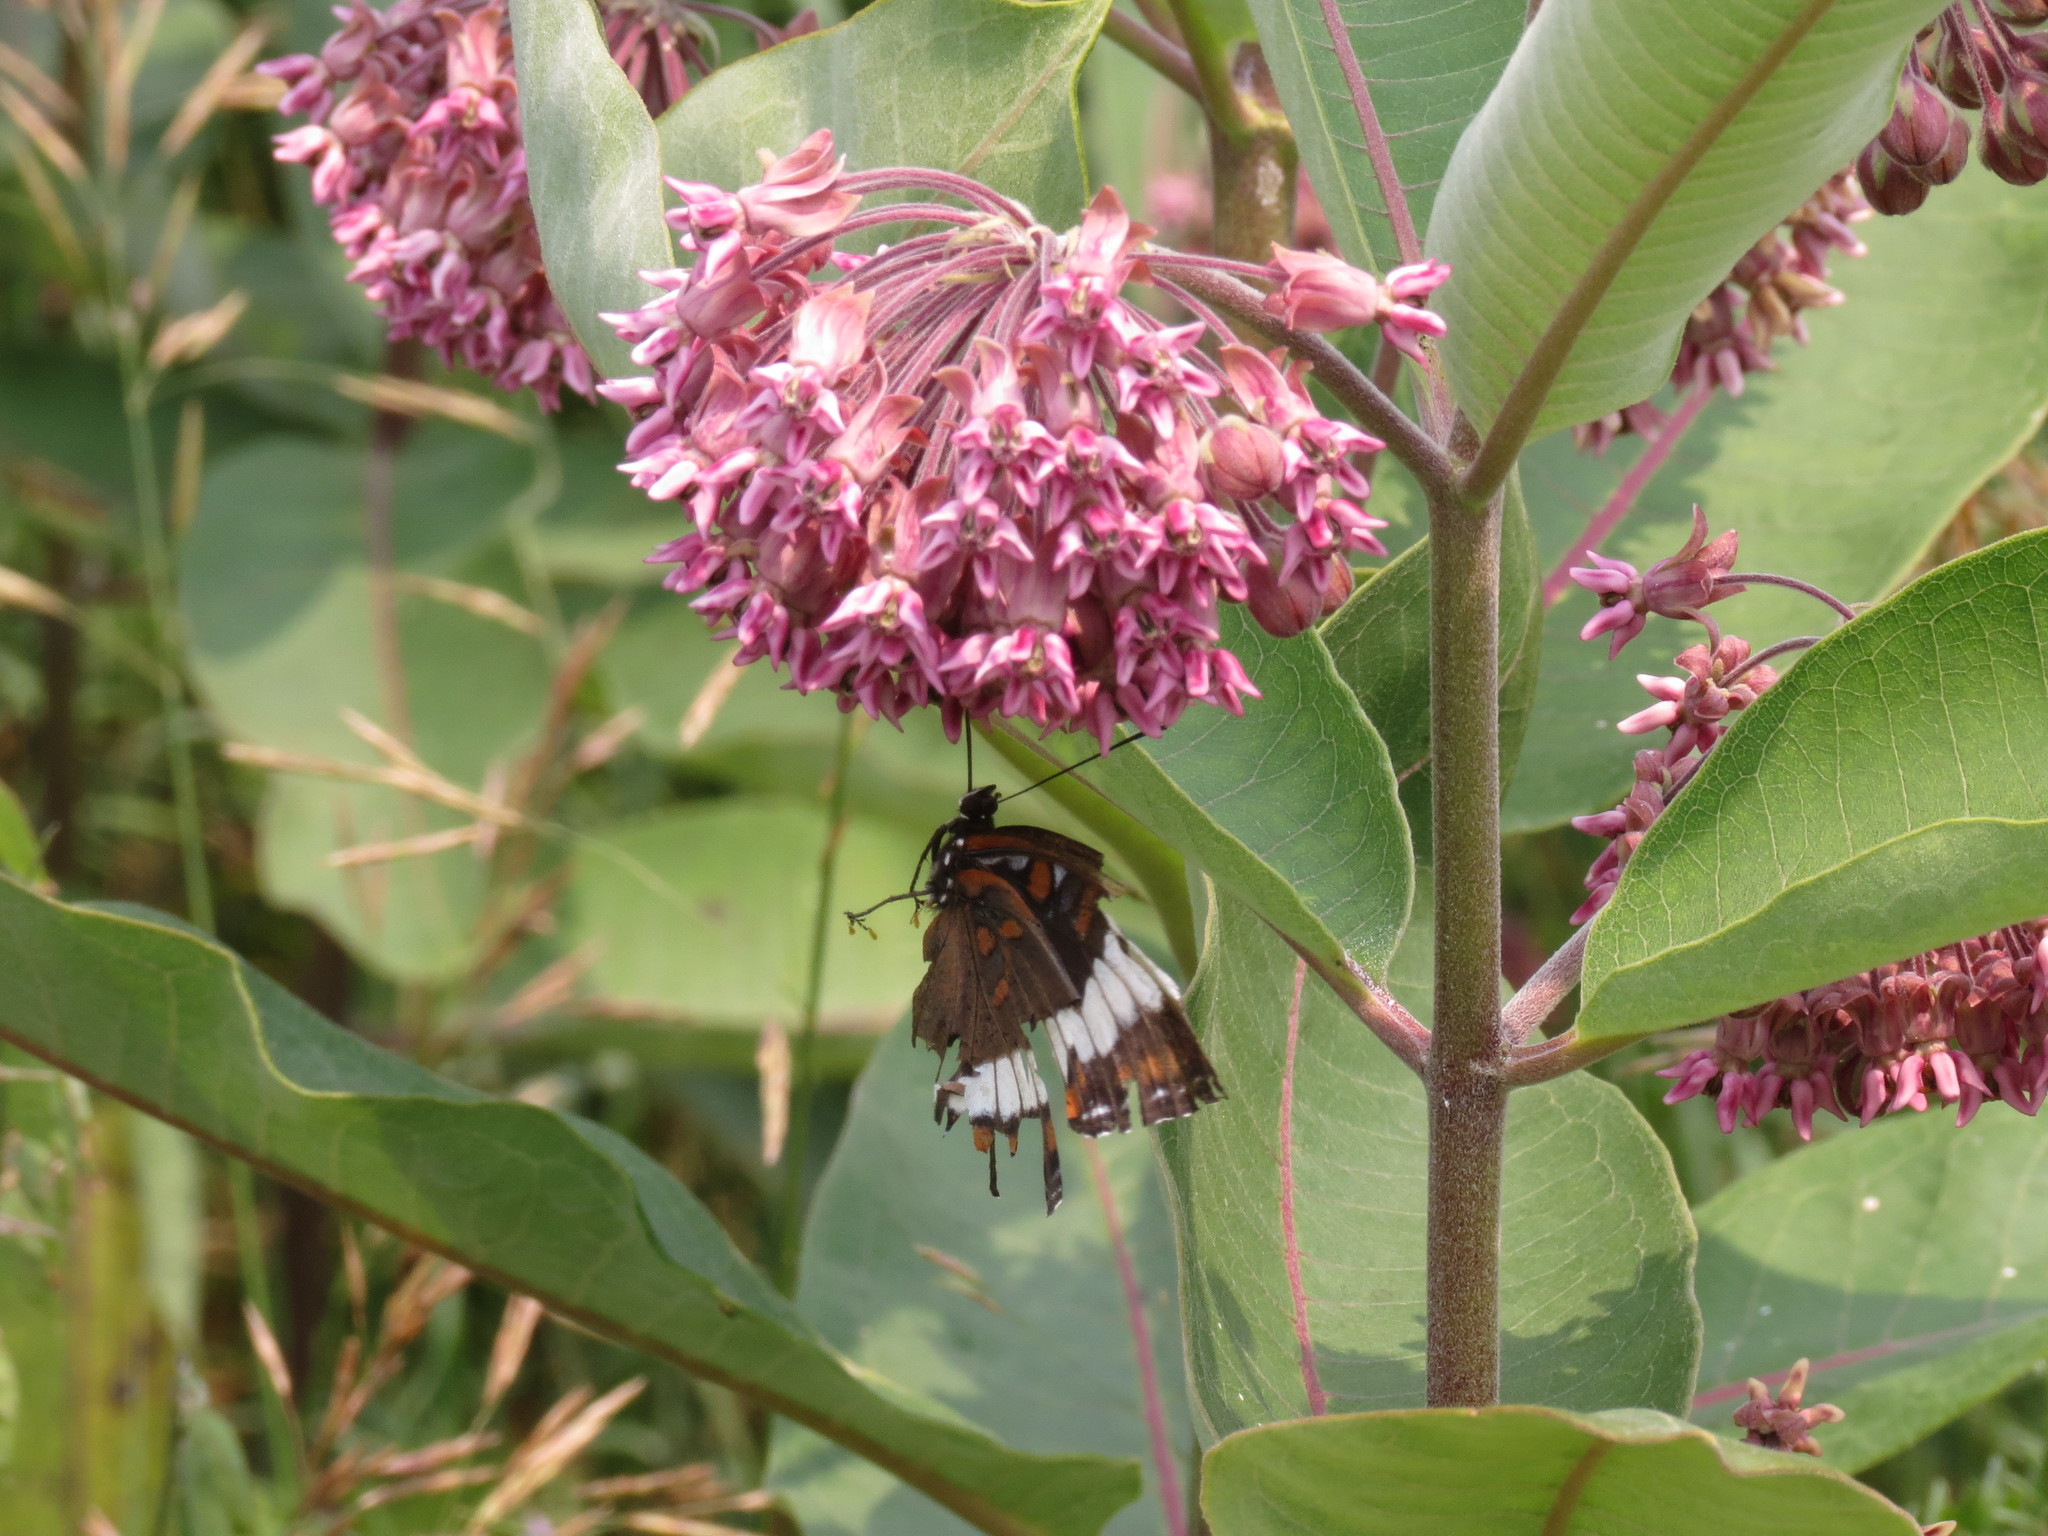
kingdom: Plantae
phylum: Tracheophyta
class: Magnoliopsida
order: Gentianales
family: Apocynaceae
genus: Asclepias
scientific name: Asclepias syriaca
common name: Common milkweed
